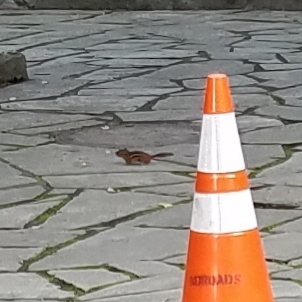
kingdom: Animalia
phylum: Chordata
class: Mammalia
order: Rodentia
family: Sciuridae
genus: Tamias
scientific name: Tamias striatus
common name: Eastern chipmunk
